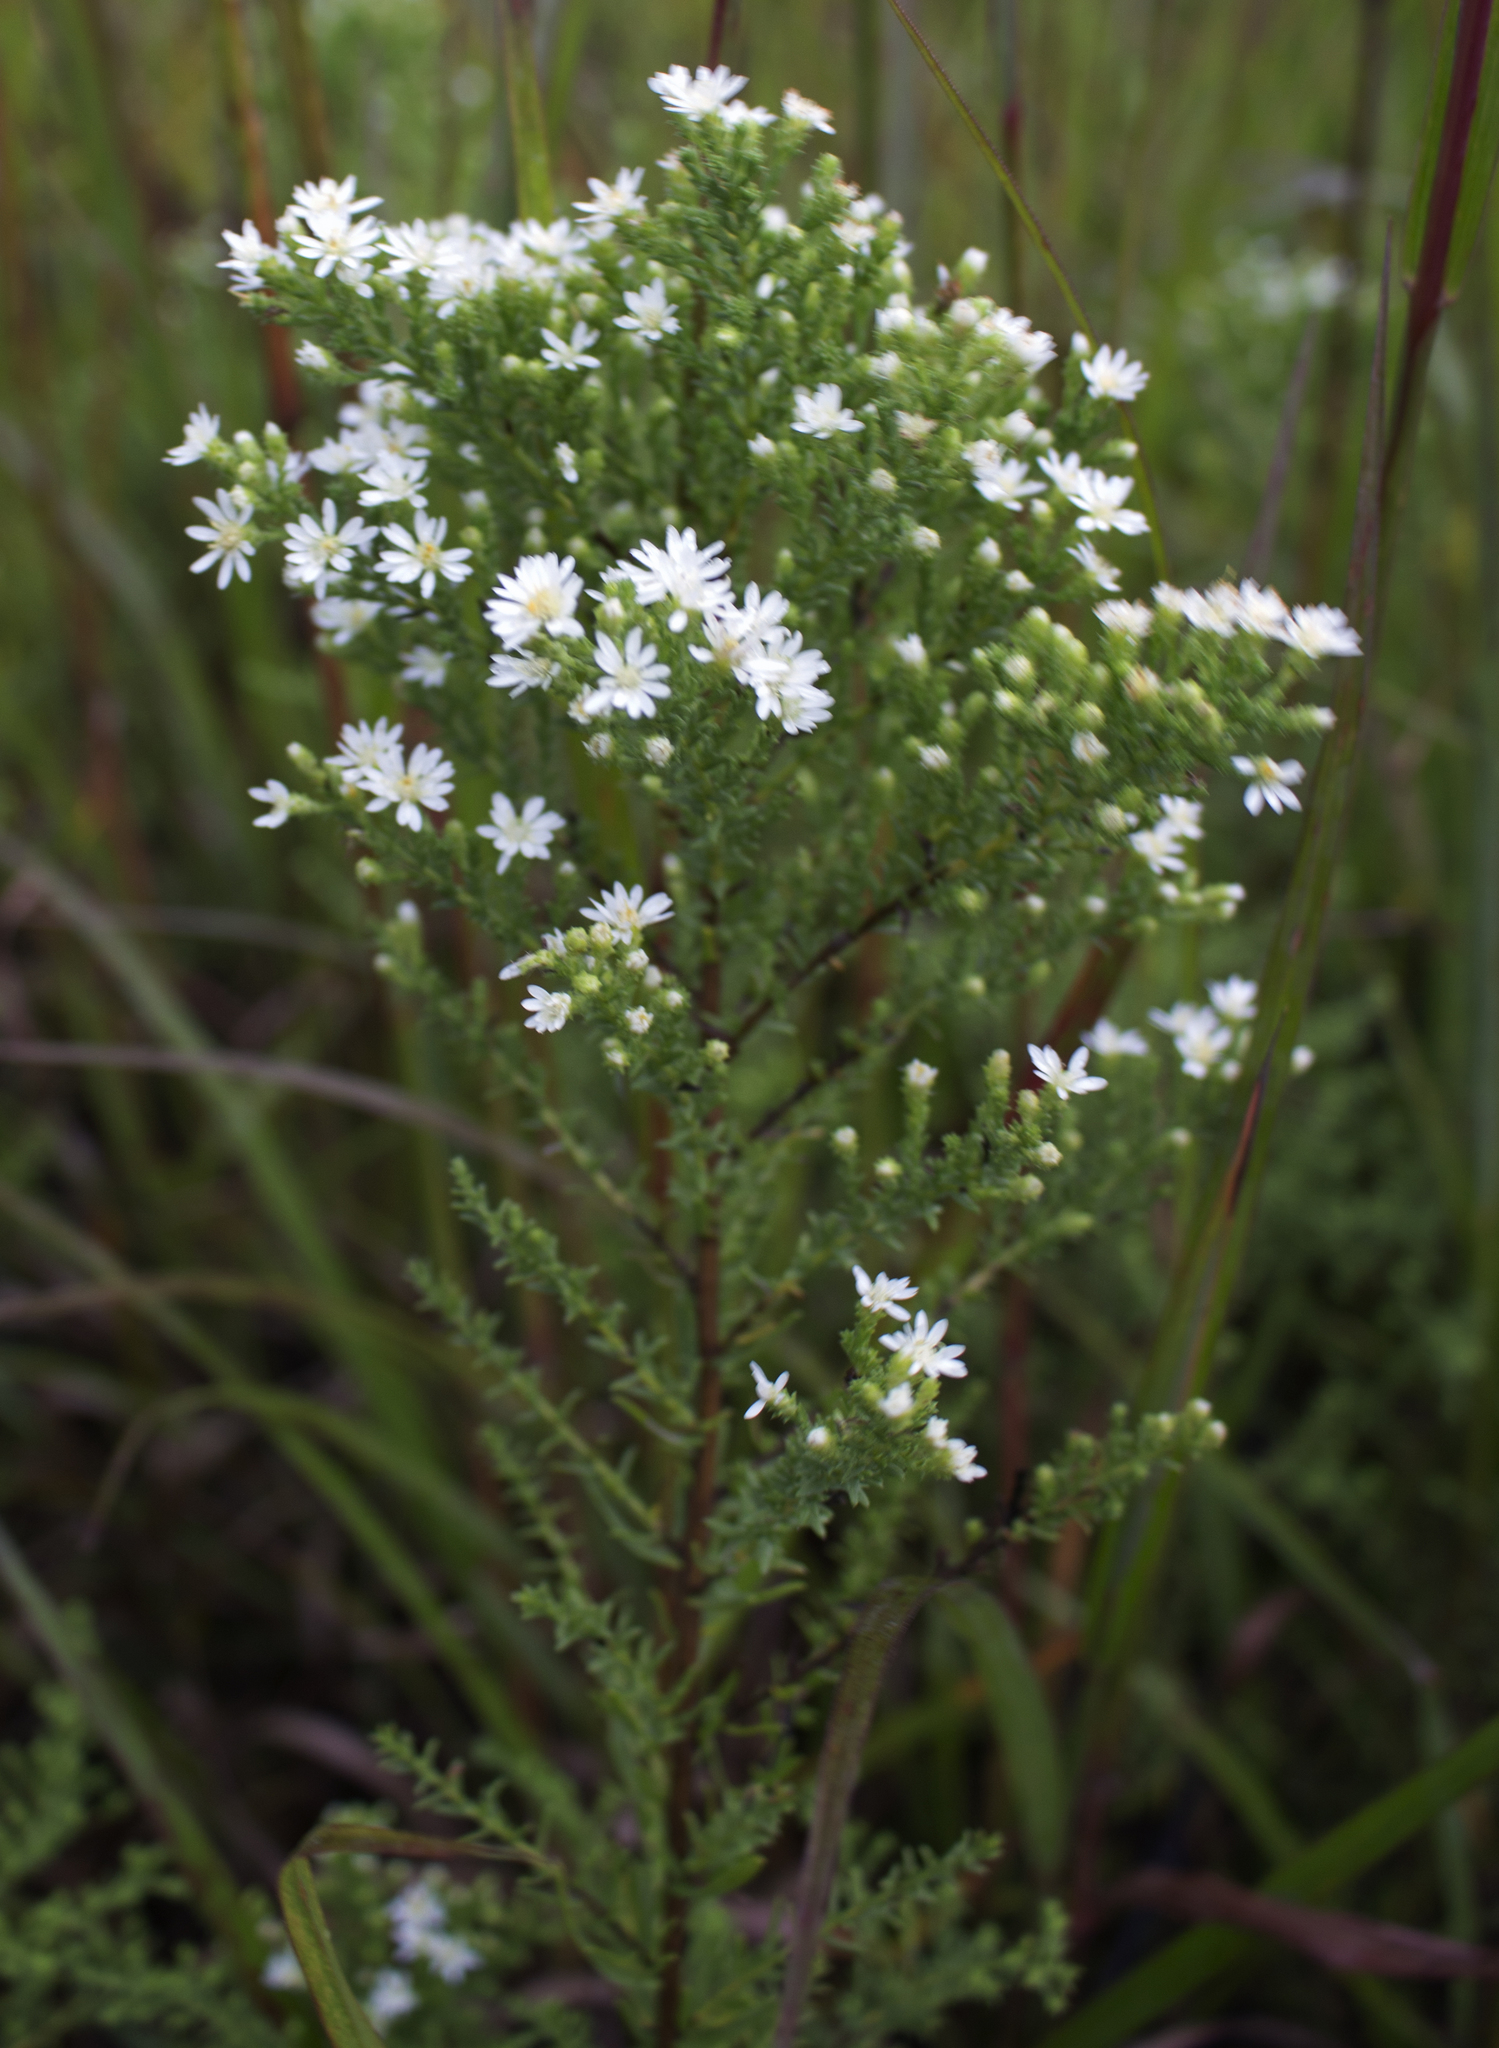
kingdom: Plantae
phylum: Tracheophyta
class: Magnoliopsida
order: Asterales
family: Asteraceae
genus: Symphyotrichum
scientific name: Symphyotrichum ericoides
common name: Heath aster
